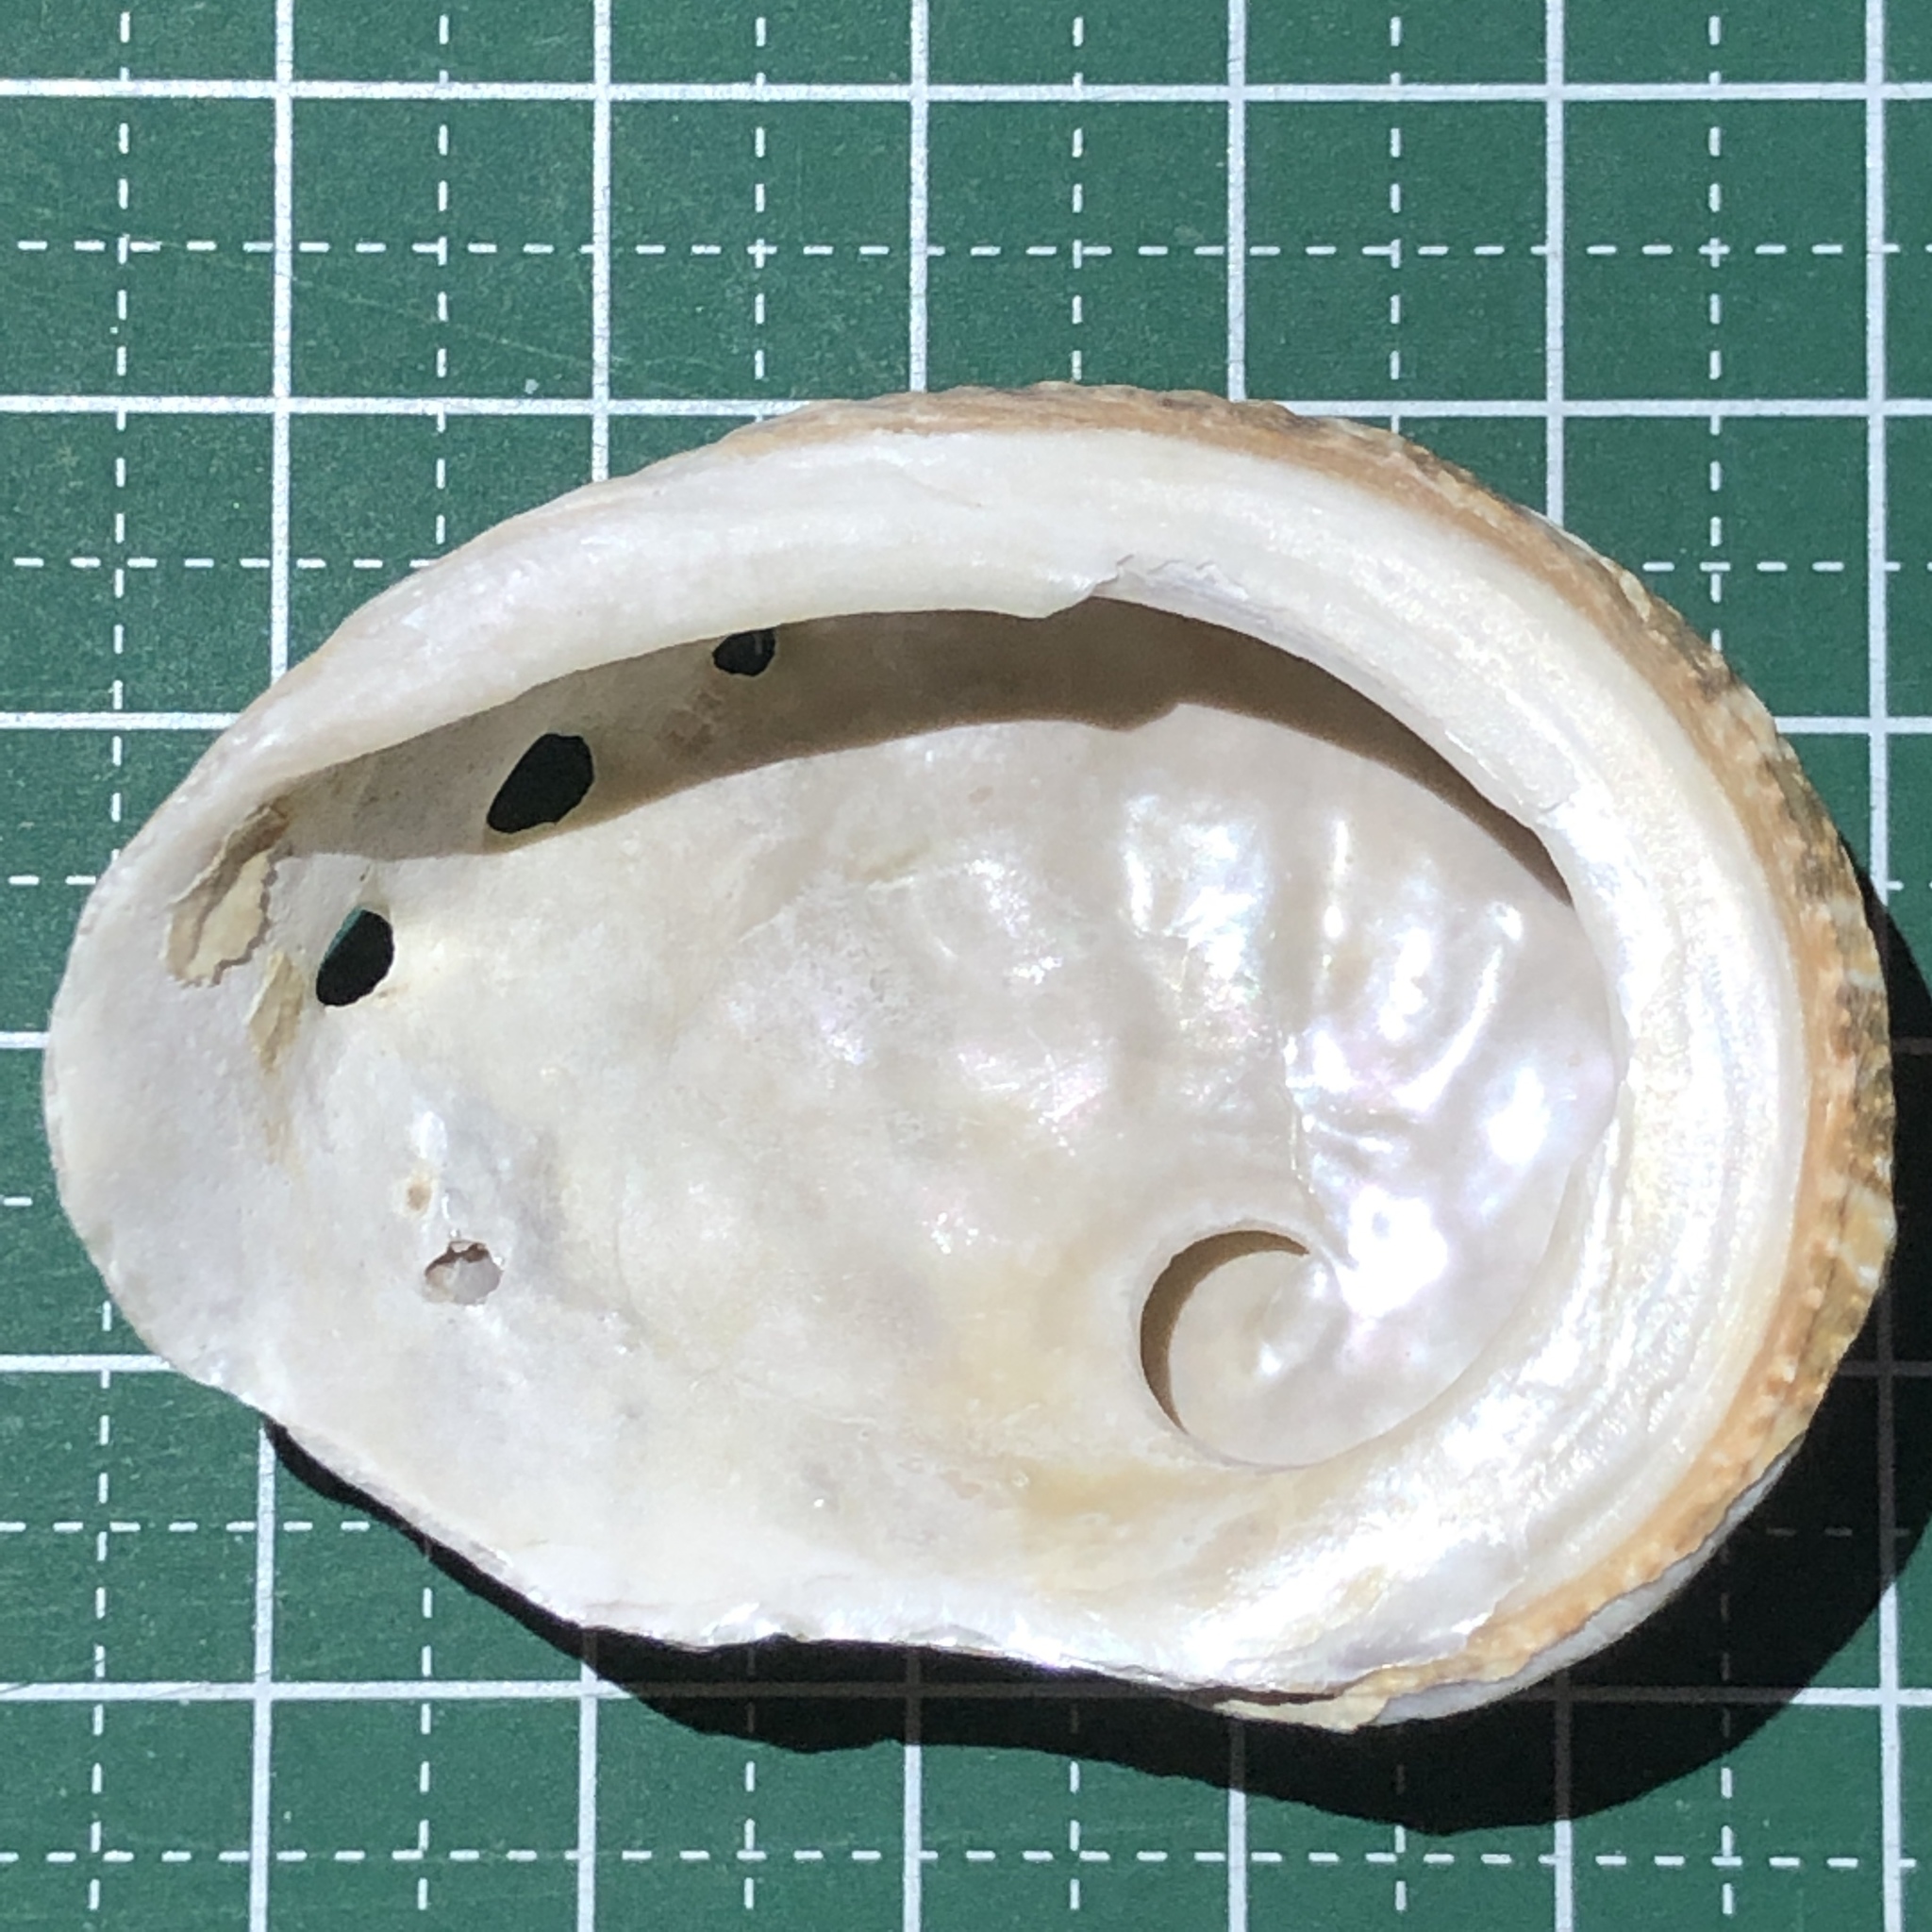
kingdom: Animalia
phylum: Mollusca
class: Gastropoda
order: Lepetellida
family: Haliotidae
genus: Haliotis
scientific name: Haliotis ovina
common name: Sheep's ear abalone
